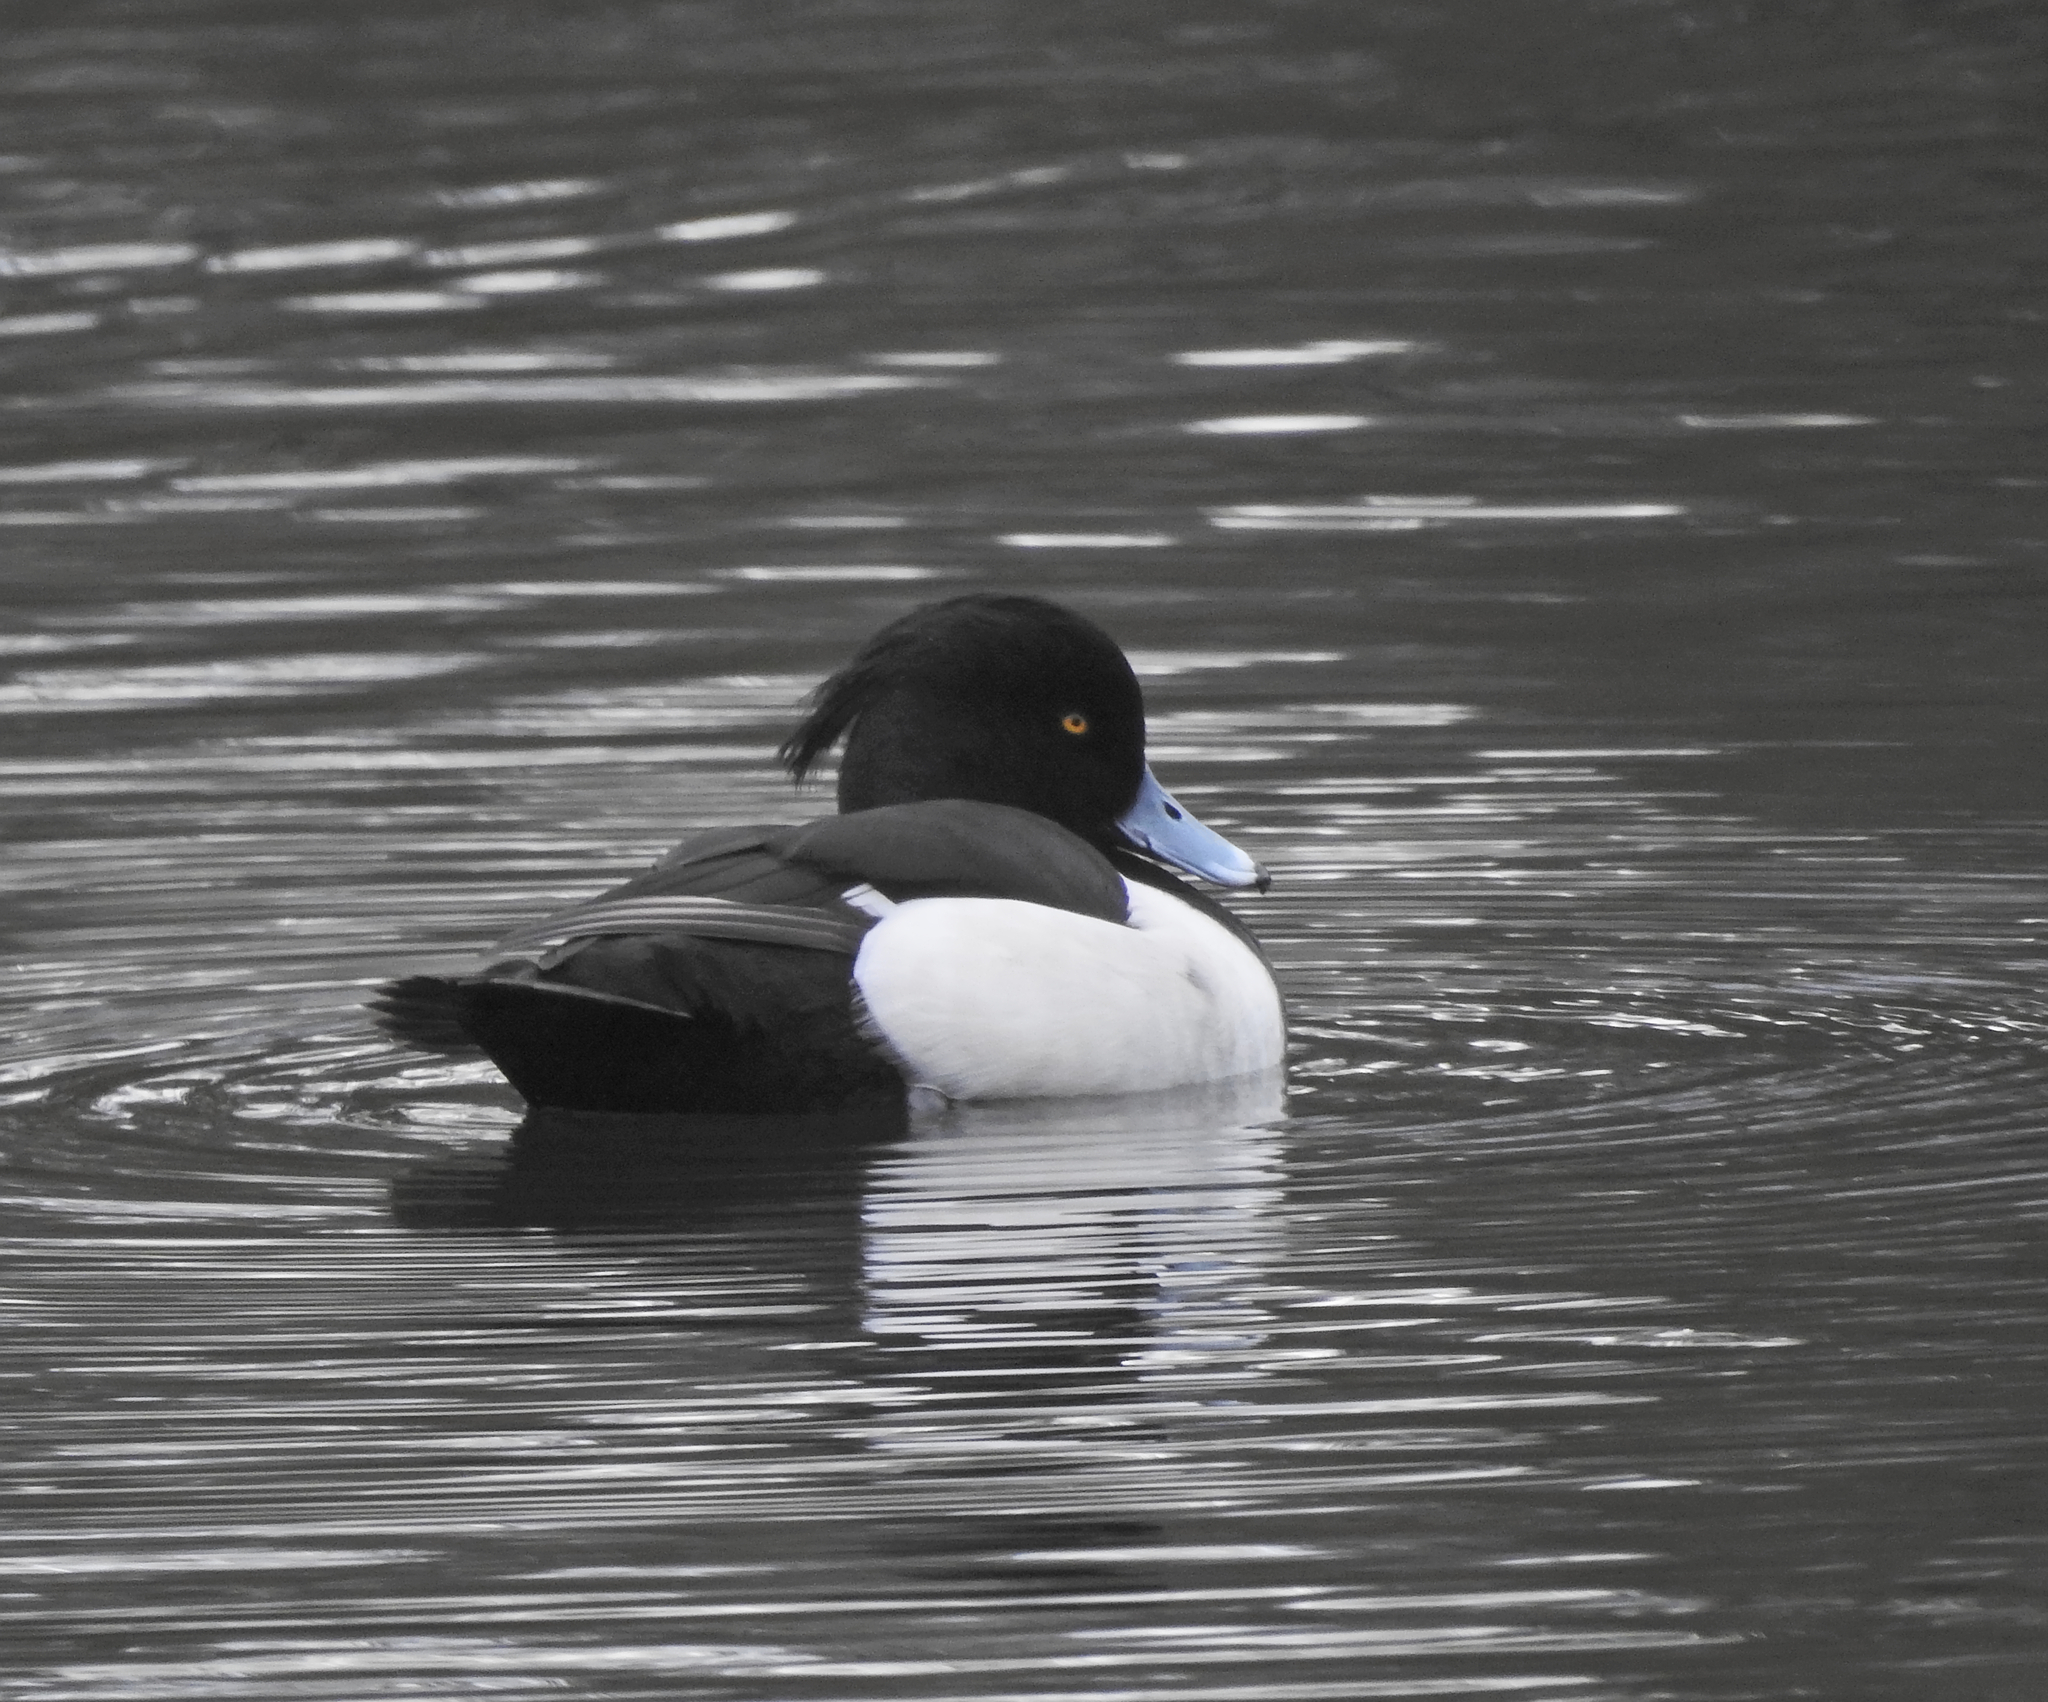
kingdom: Animalia
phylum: Chordata
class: Aves
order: Anseriformes
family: Anatidae
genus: Aythya
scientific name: Aythya fuligula
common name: Tufted duck
